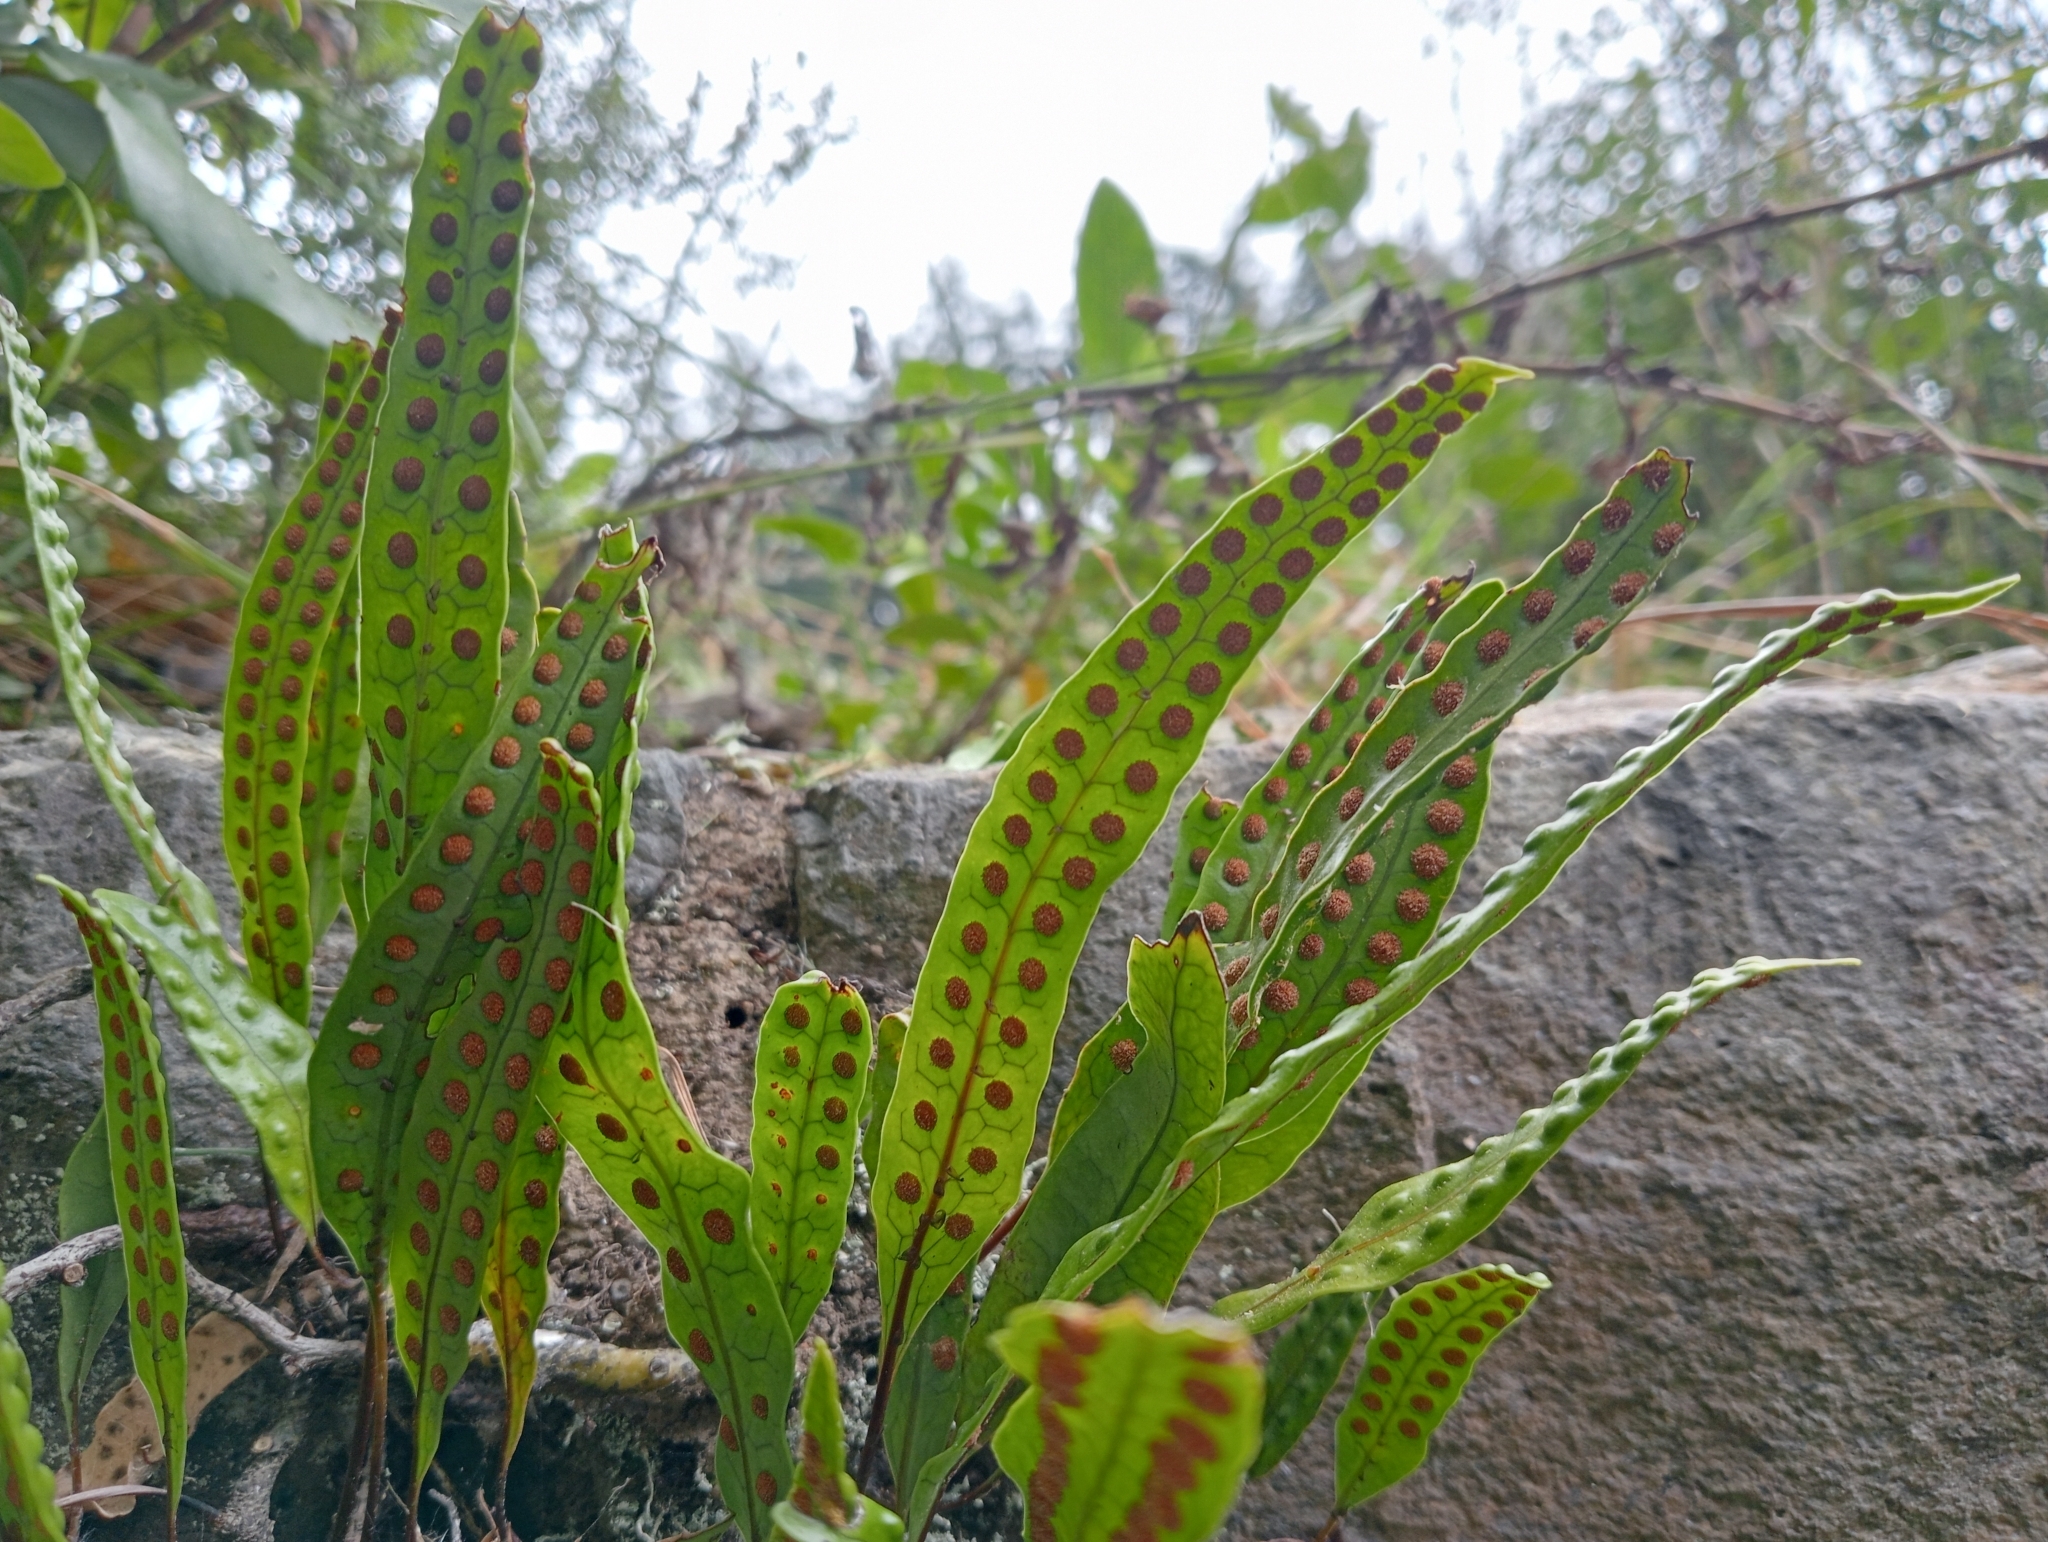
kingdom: Plantae
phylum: Tracheophyta
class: Polypodiopsida
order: Polypodiales
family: Polypodiaceae
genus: Lecanopteris
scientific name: Lecanopteris pustulata
